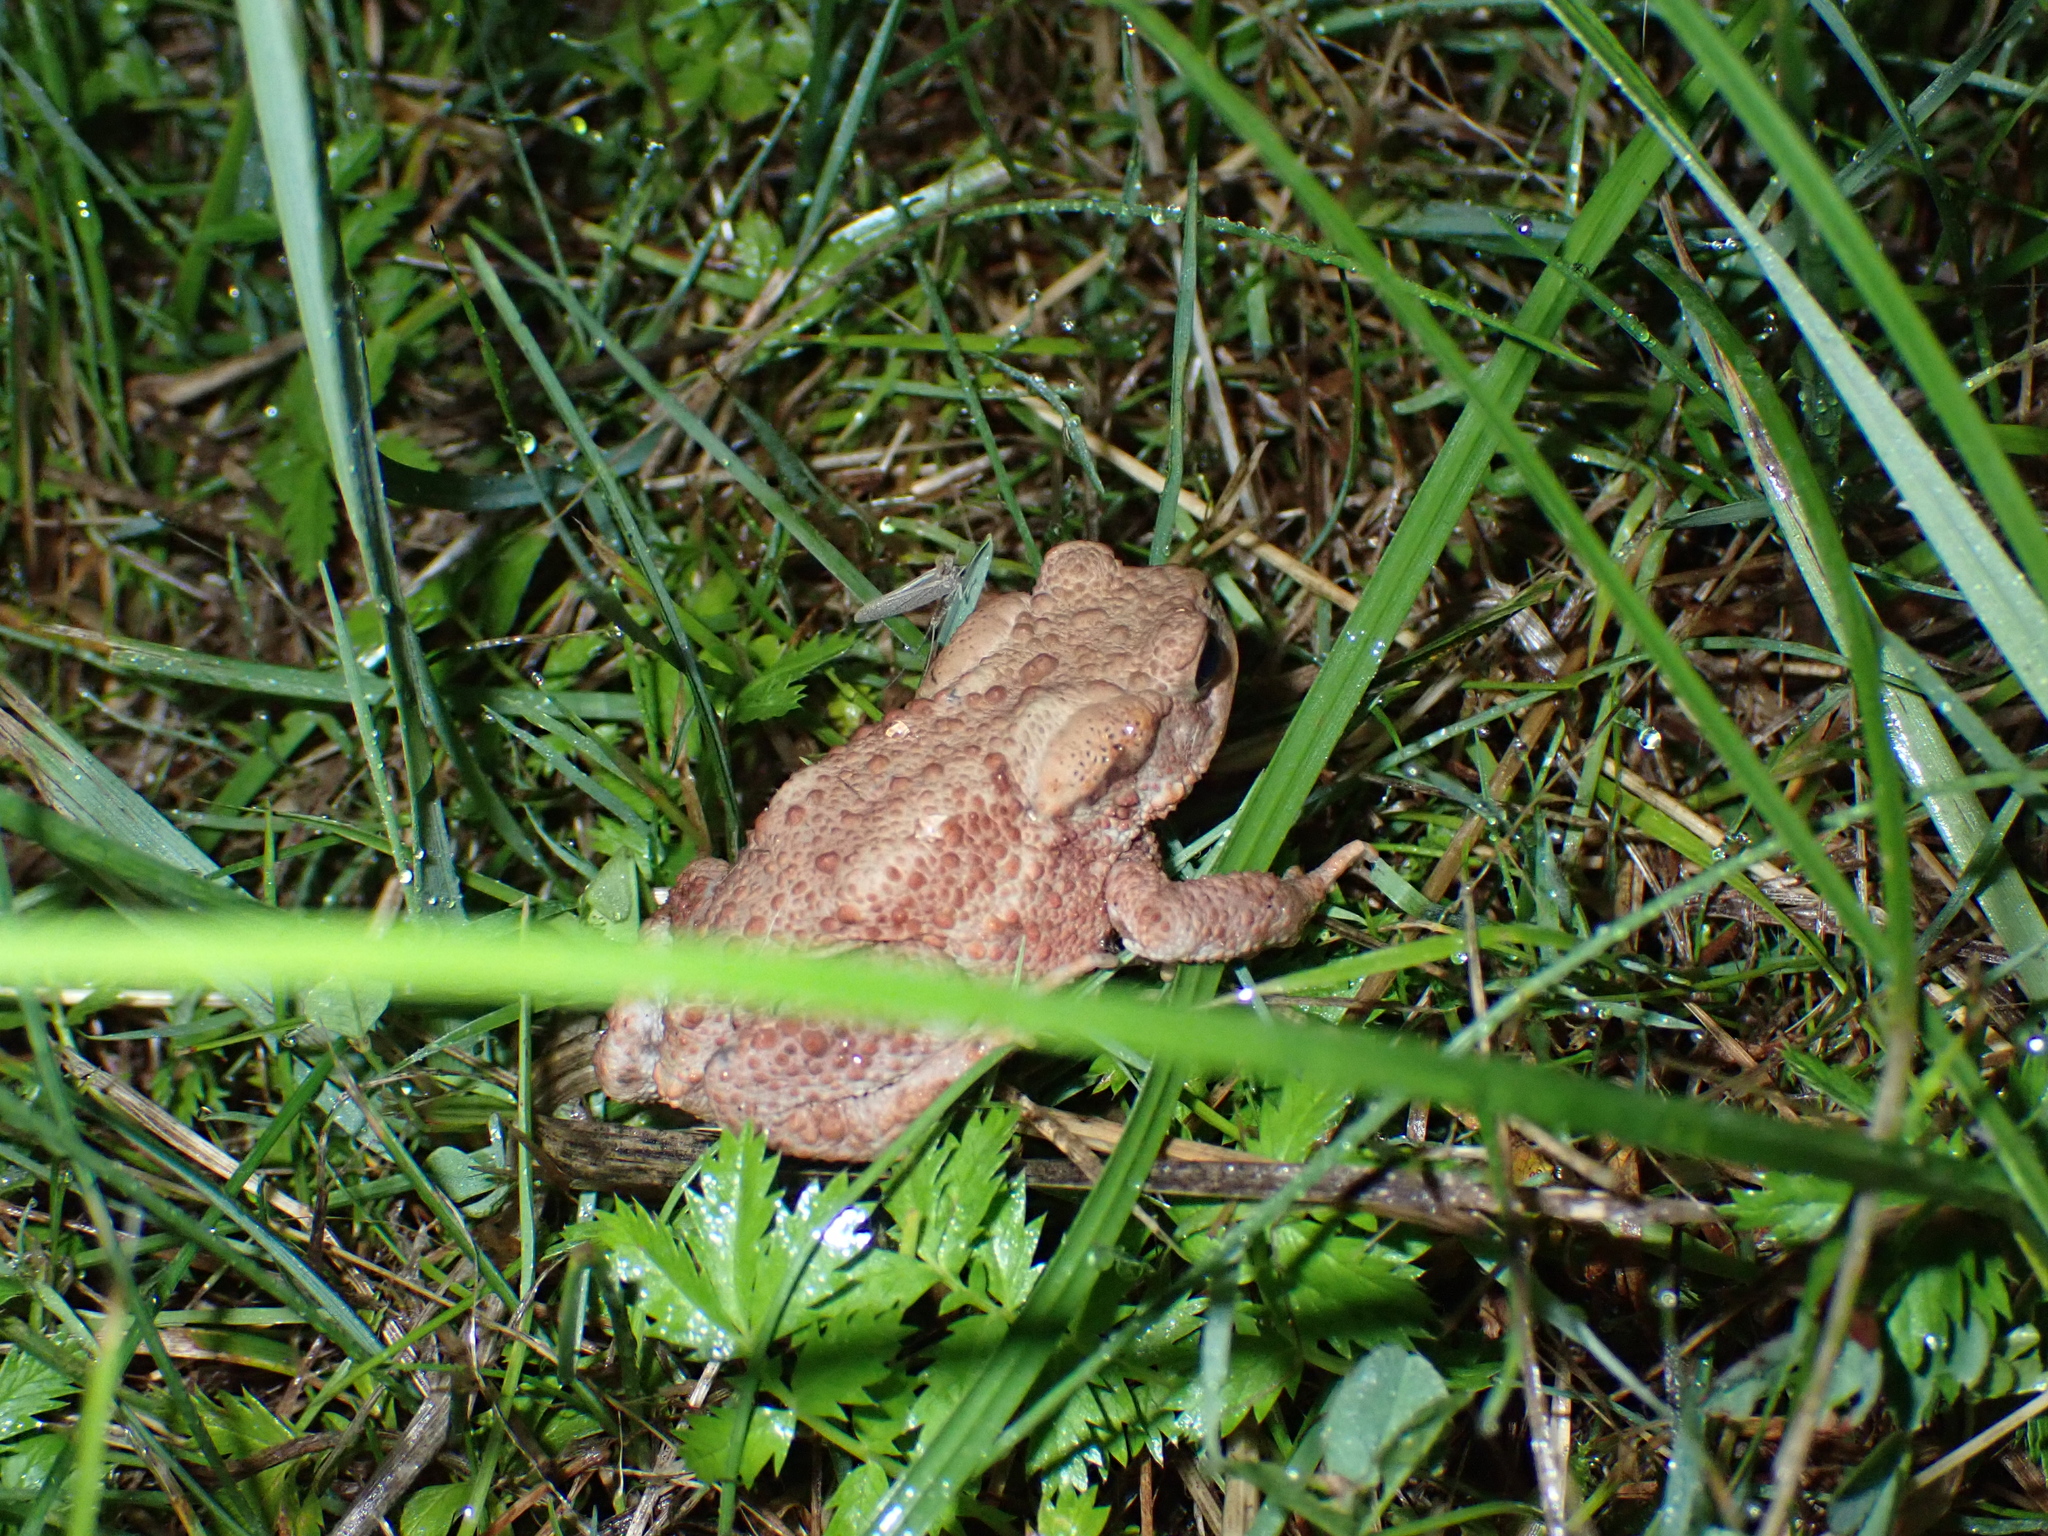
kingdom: Animalia
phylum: Chordata
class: Amphibia
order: Anura
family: Bufonidae
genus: Bufo
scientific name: Bufo bufo
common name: Common toad
